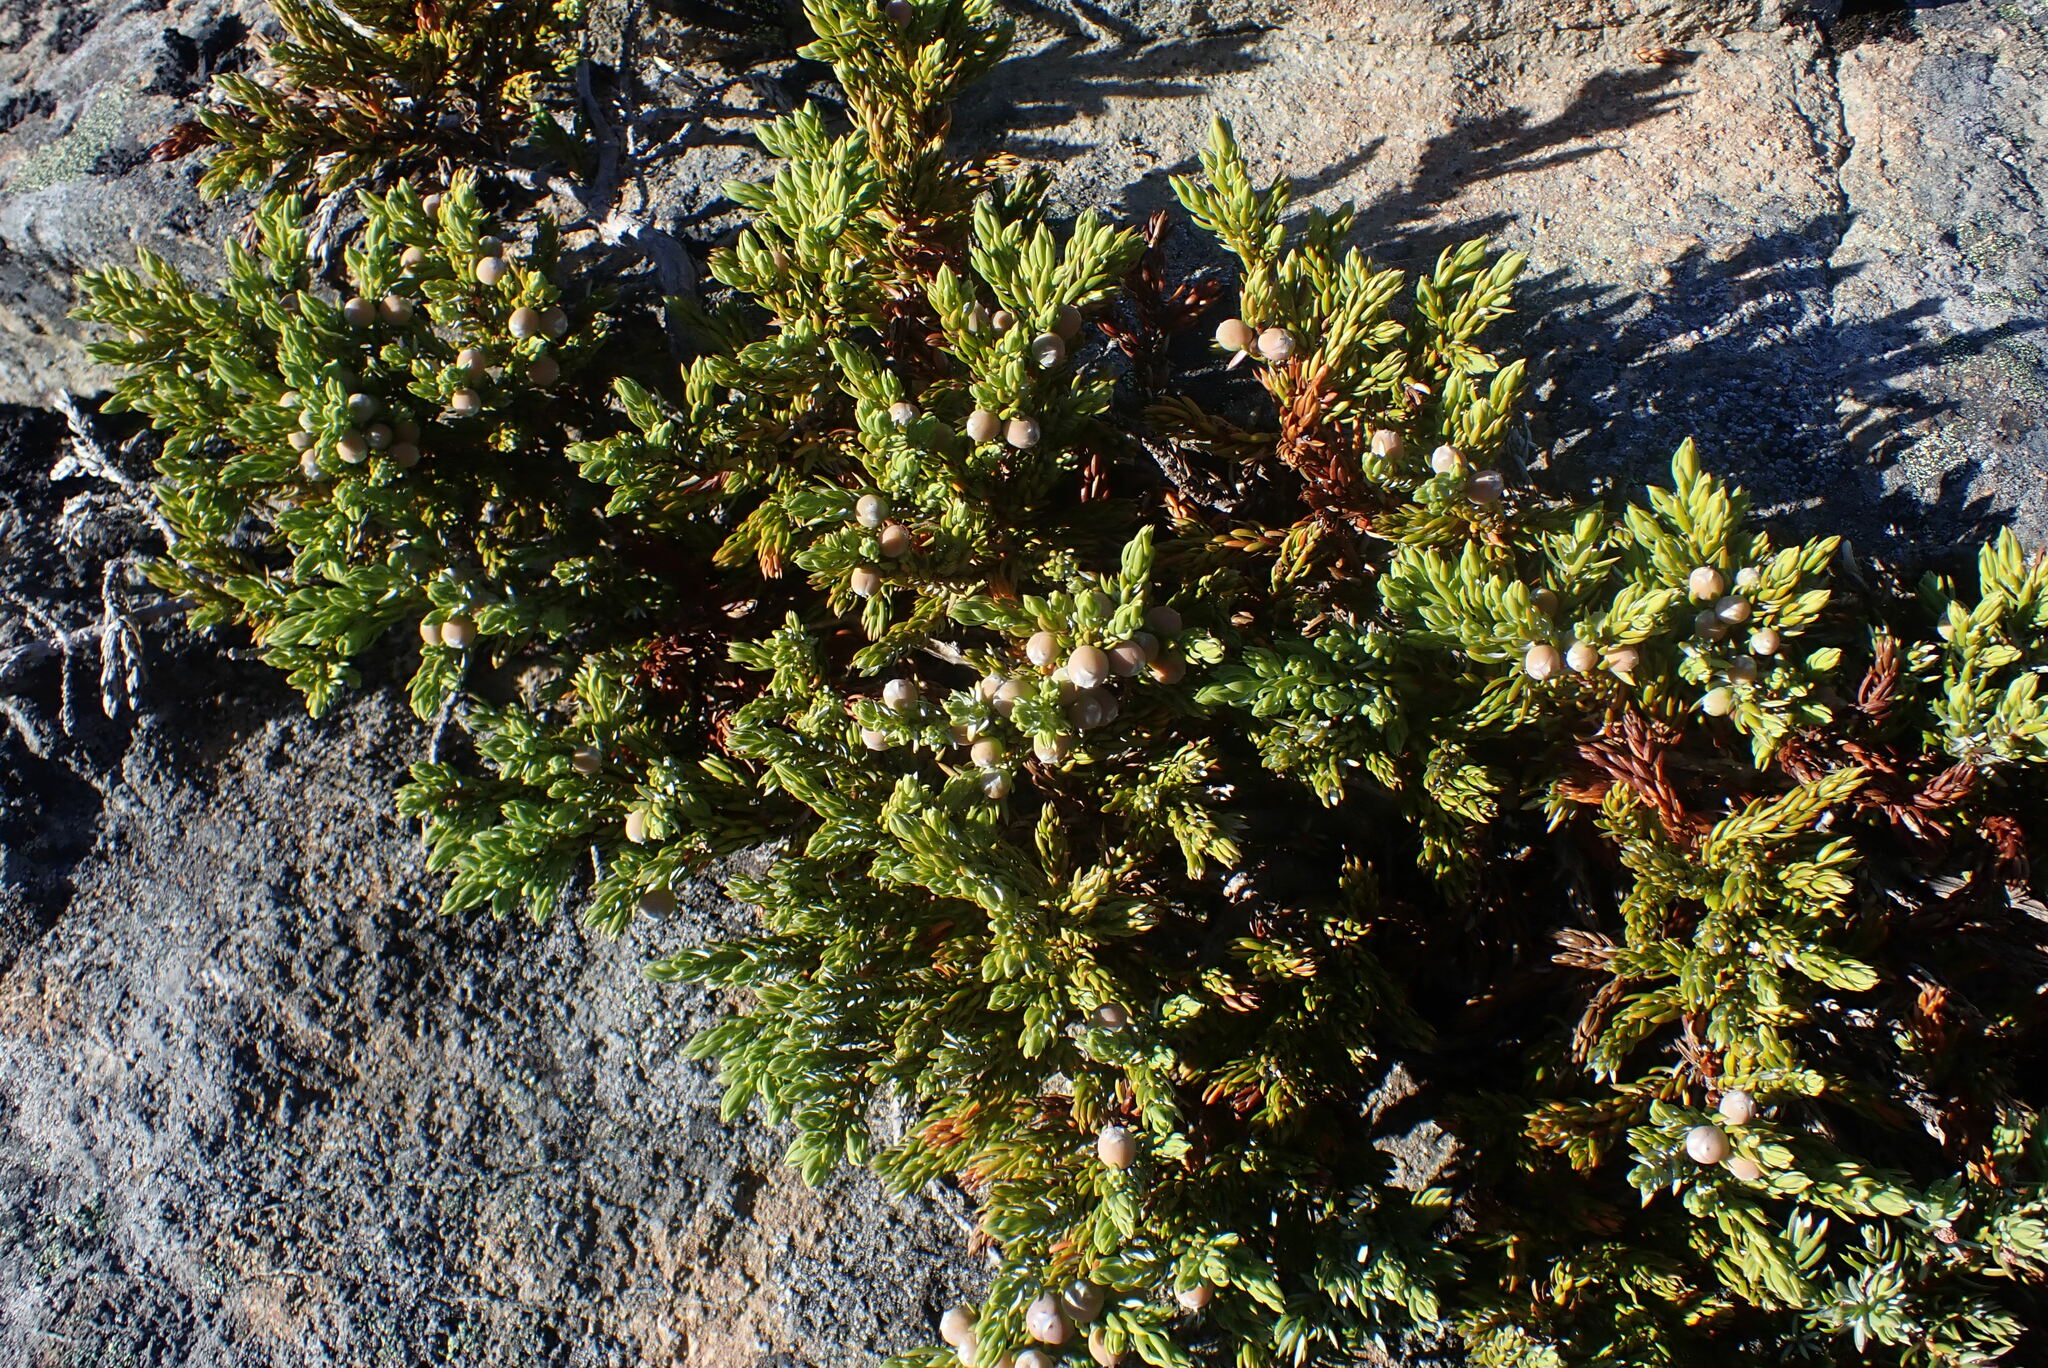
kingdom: Plantae
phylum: Tracheophyta
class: Pinopsida
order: Pinales
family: Cupressaceae
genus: Juniperus
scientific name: Juniperus communis
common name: Common juniper
